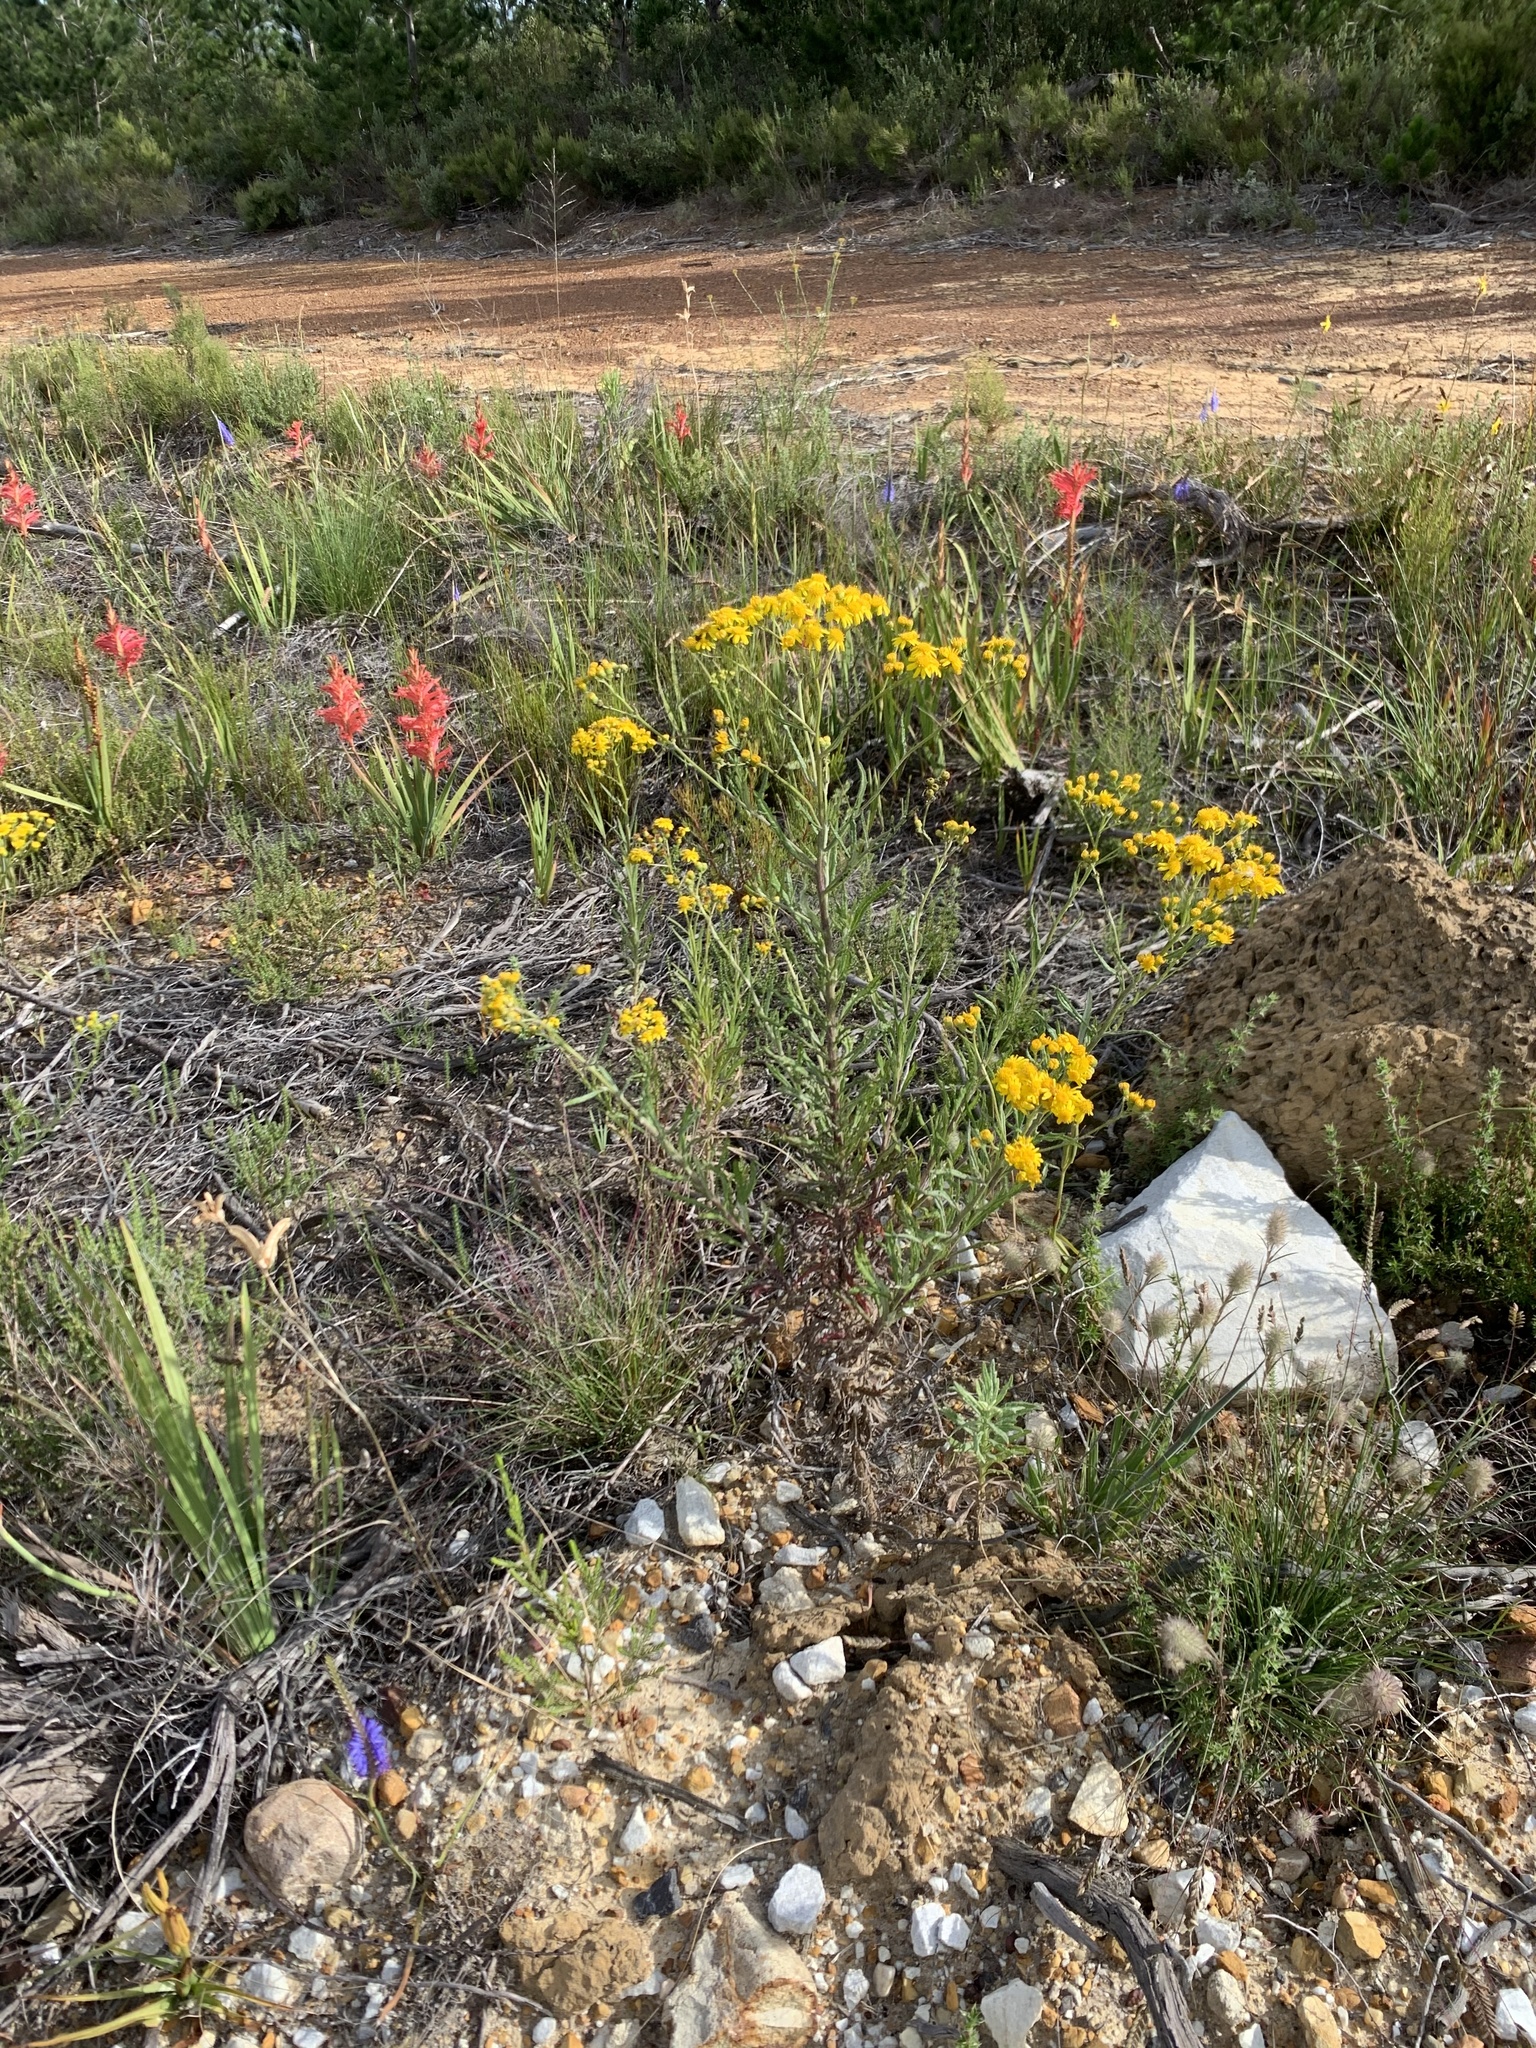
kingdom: Plantae
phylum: Tracheophyta
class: Magnoliopsida
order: Asterales
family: Asteraceae
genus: Senecio
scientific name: Senecio pterophorus
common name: Shoddy ragwort
